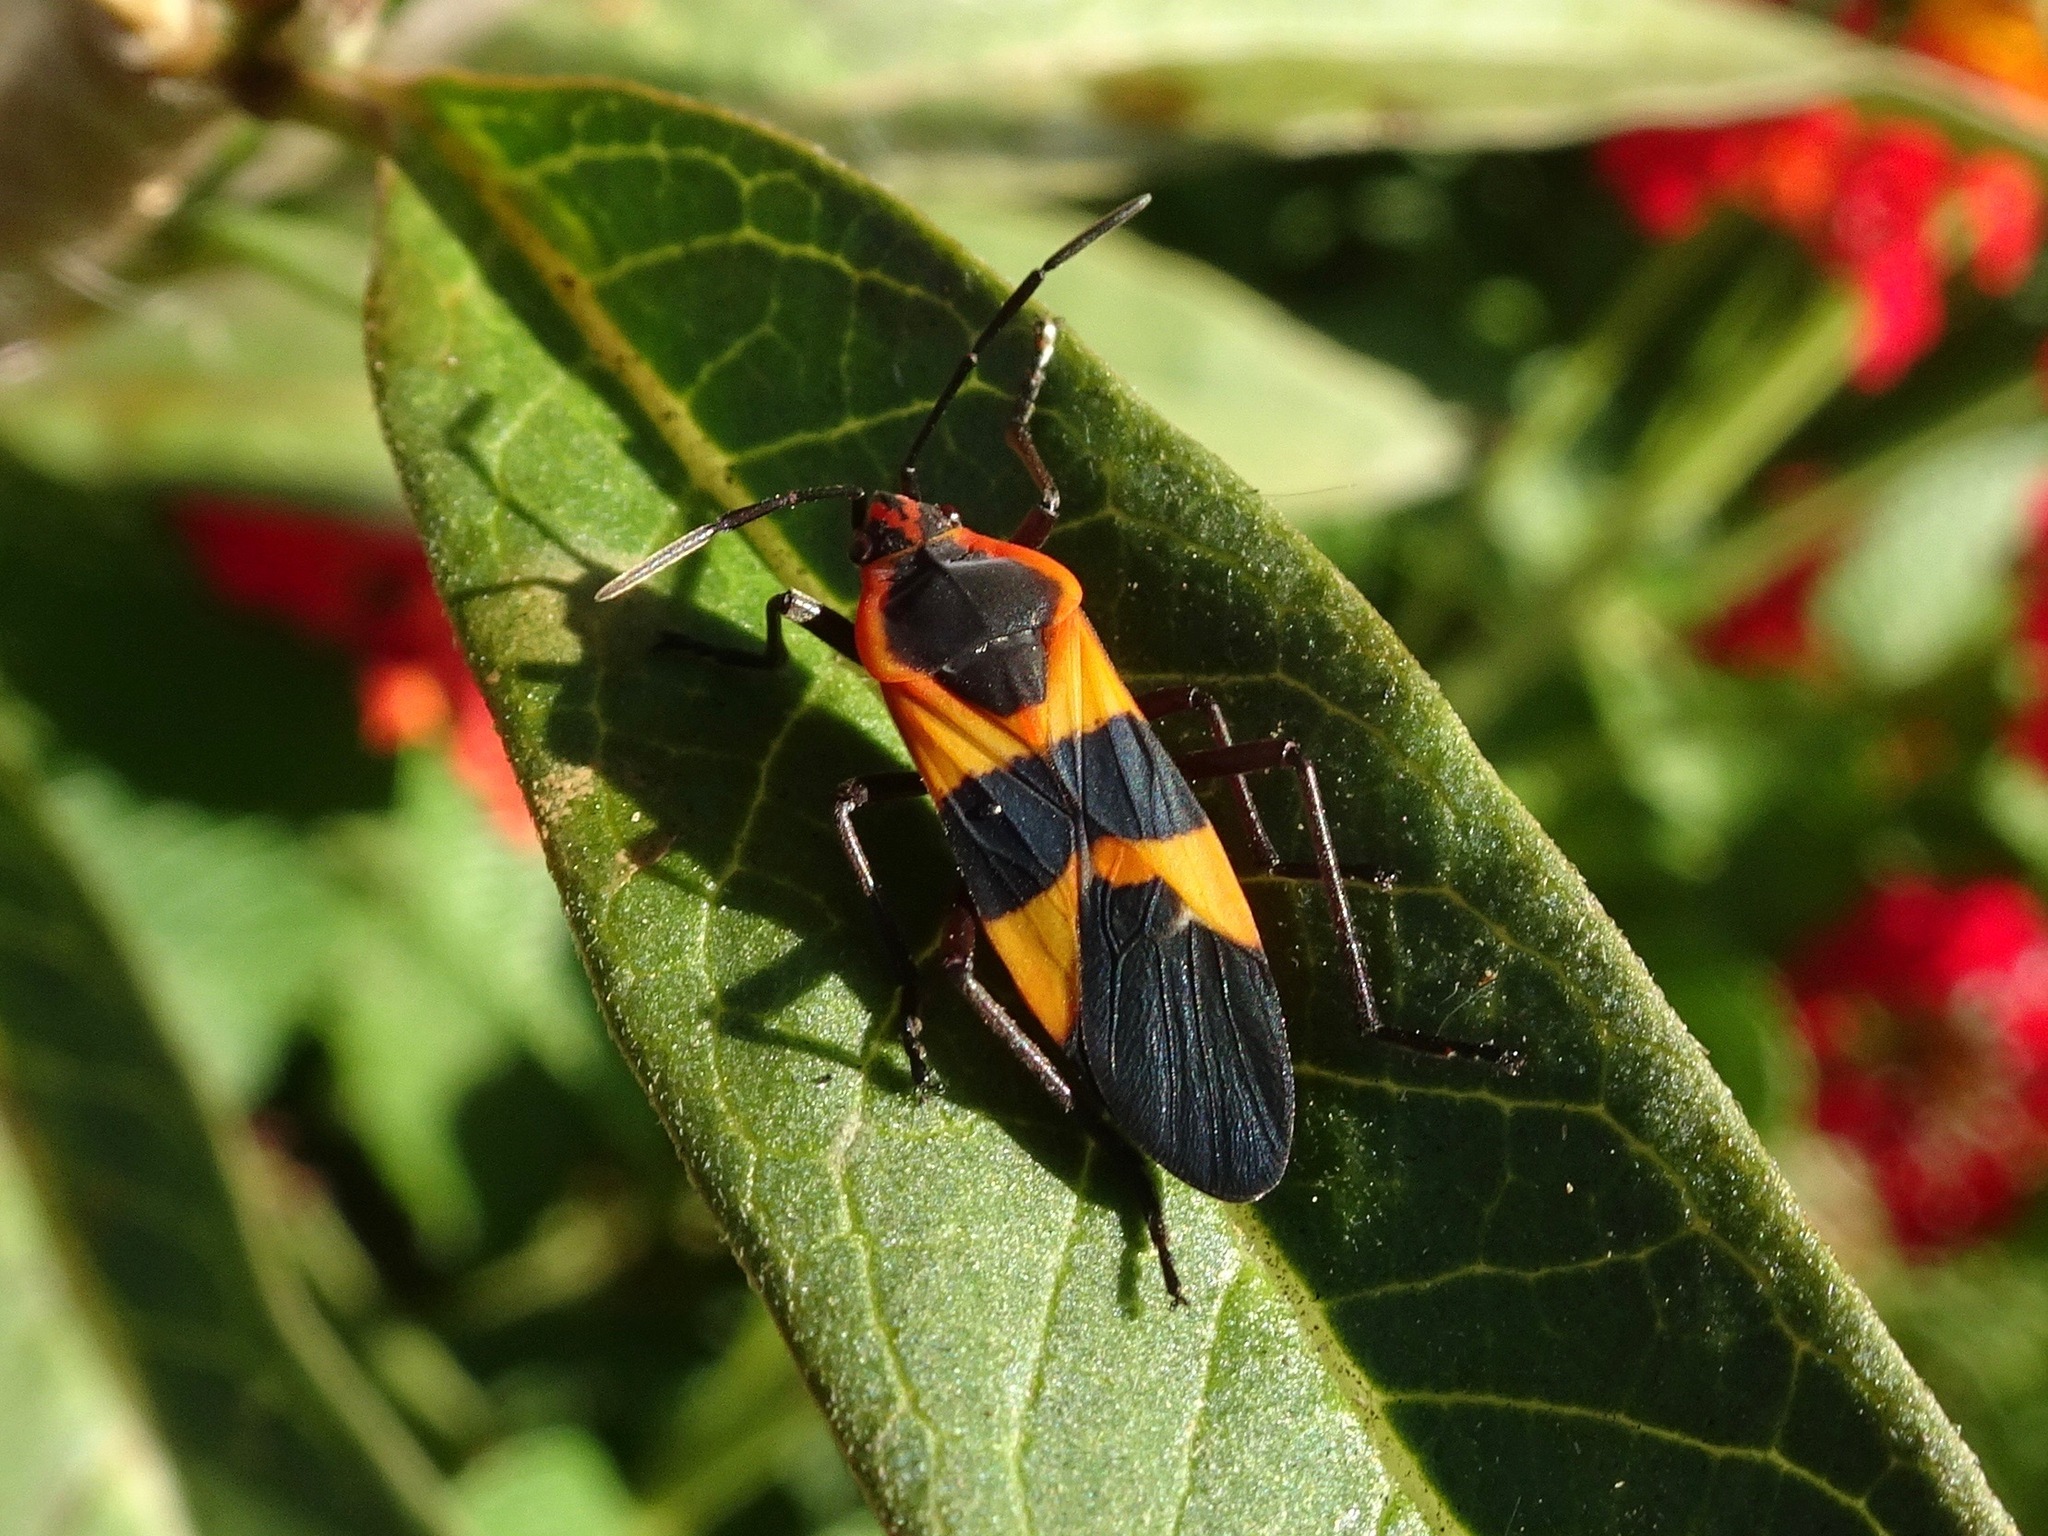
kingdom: Animalia
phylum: Arthropoda
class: Insecta
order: Hemiptera
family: Lygaeidae
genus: Oncopeltus
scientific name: Oncopeltus fasciatus
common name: Large milkweed bug
